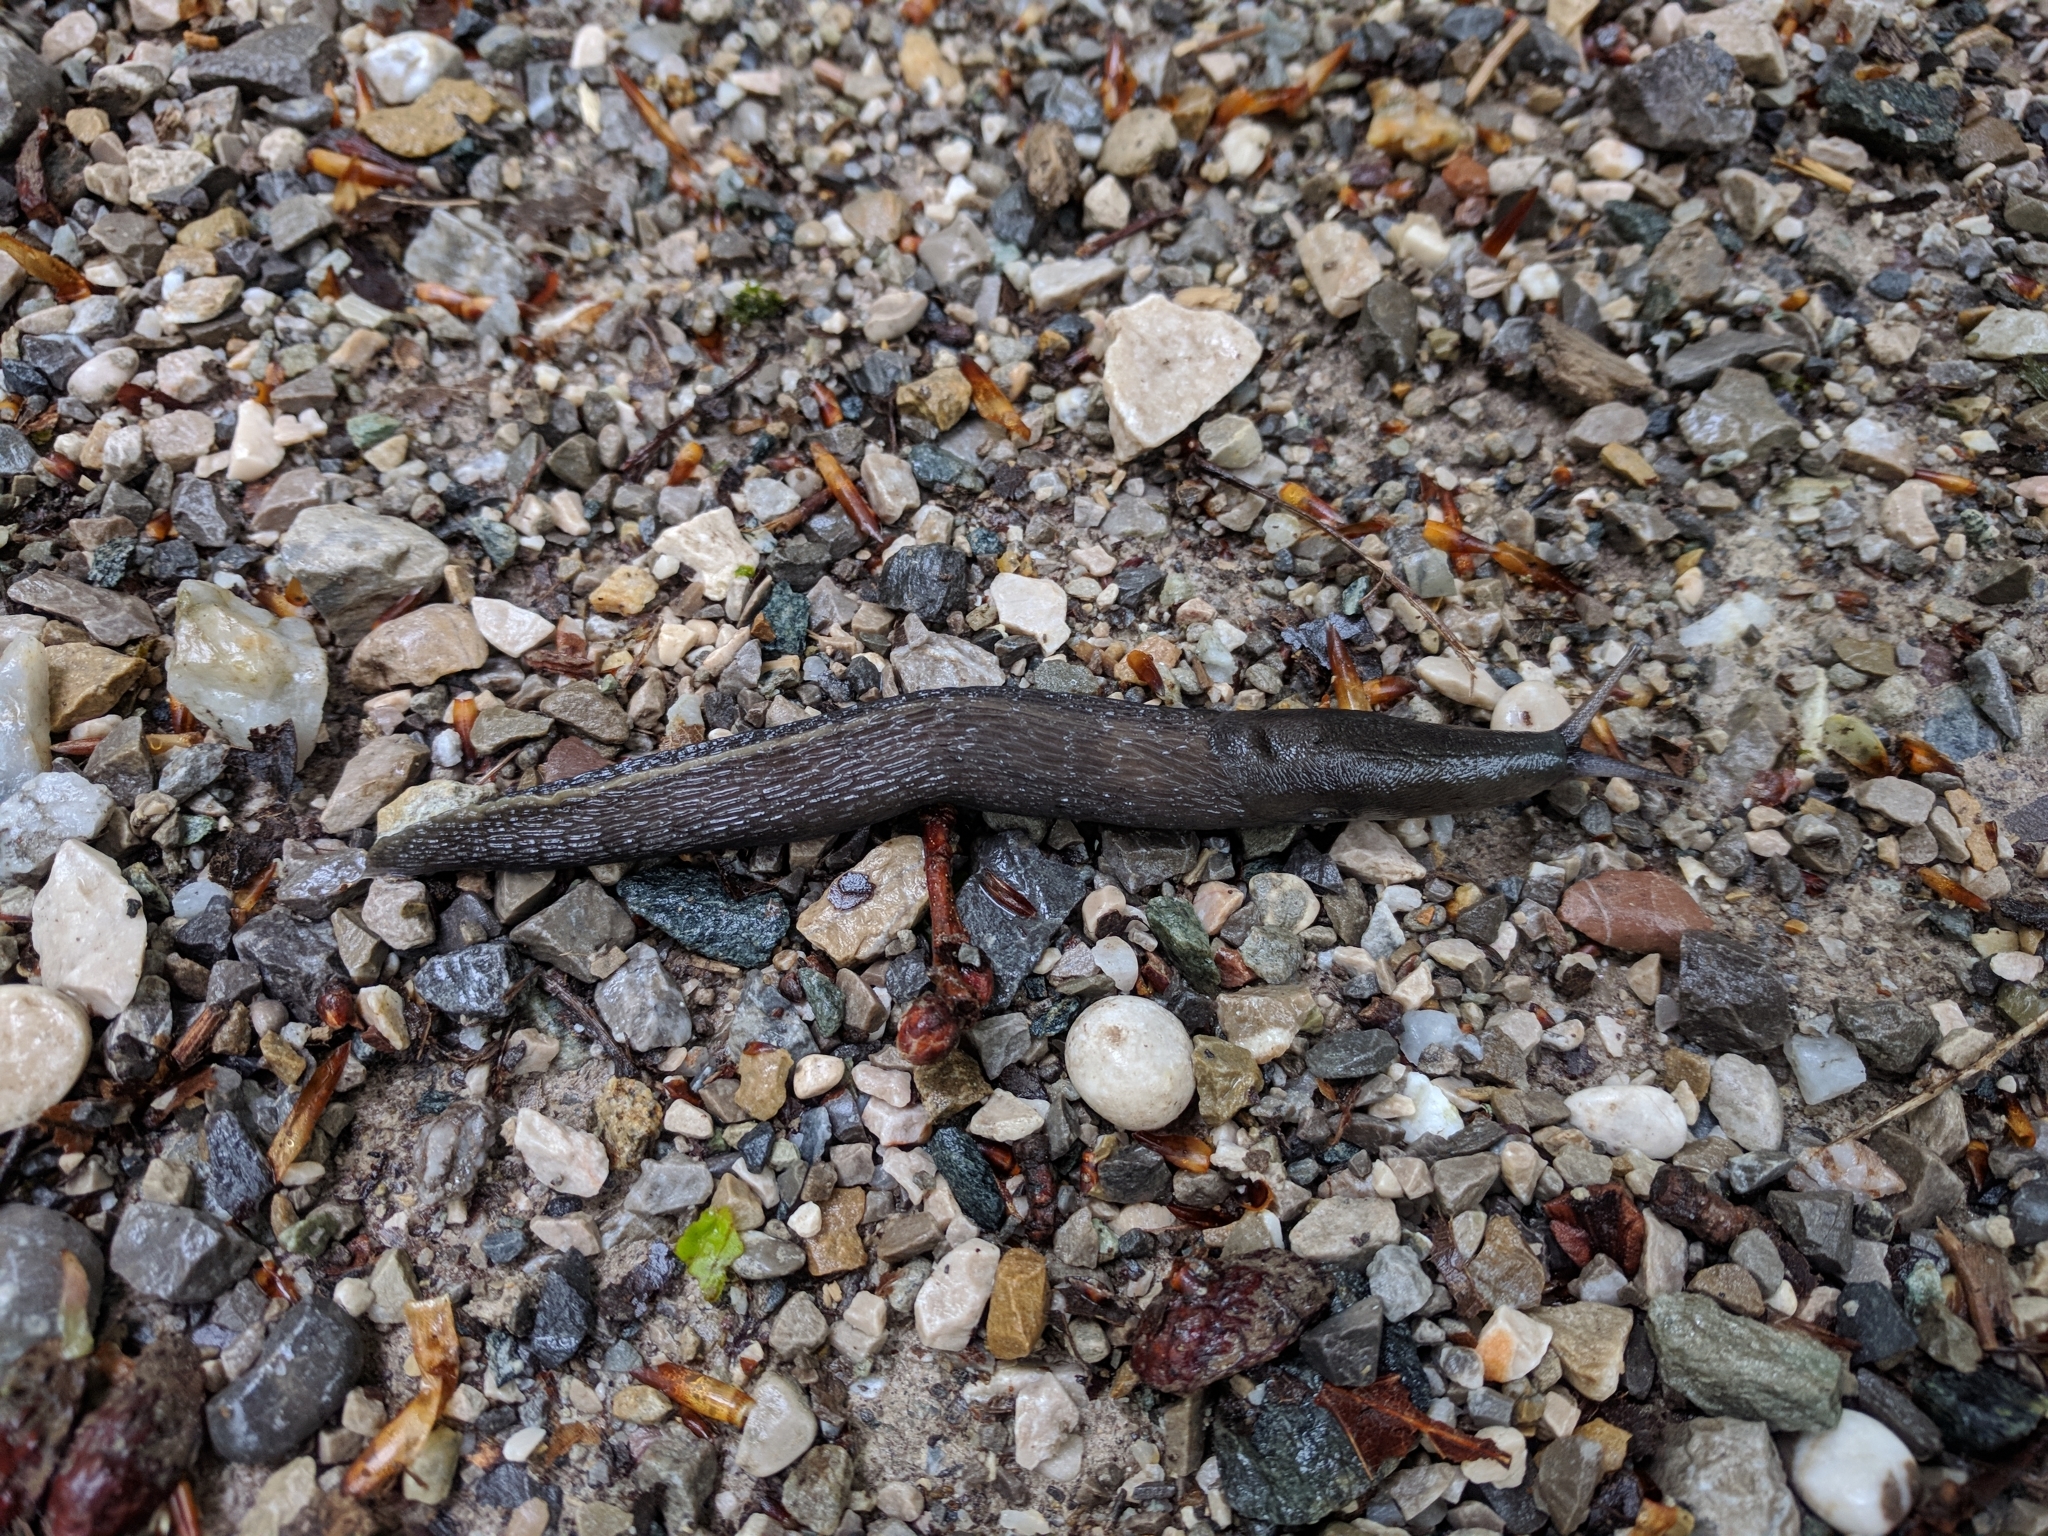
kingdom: Animalia
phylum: Mollusca
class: Gastropoda
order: Stylommatophora
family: Limacidae
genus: Limax
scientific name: Limax cinereoniger
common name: Ash-black slug
